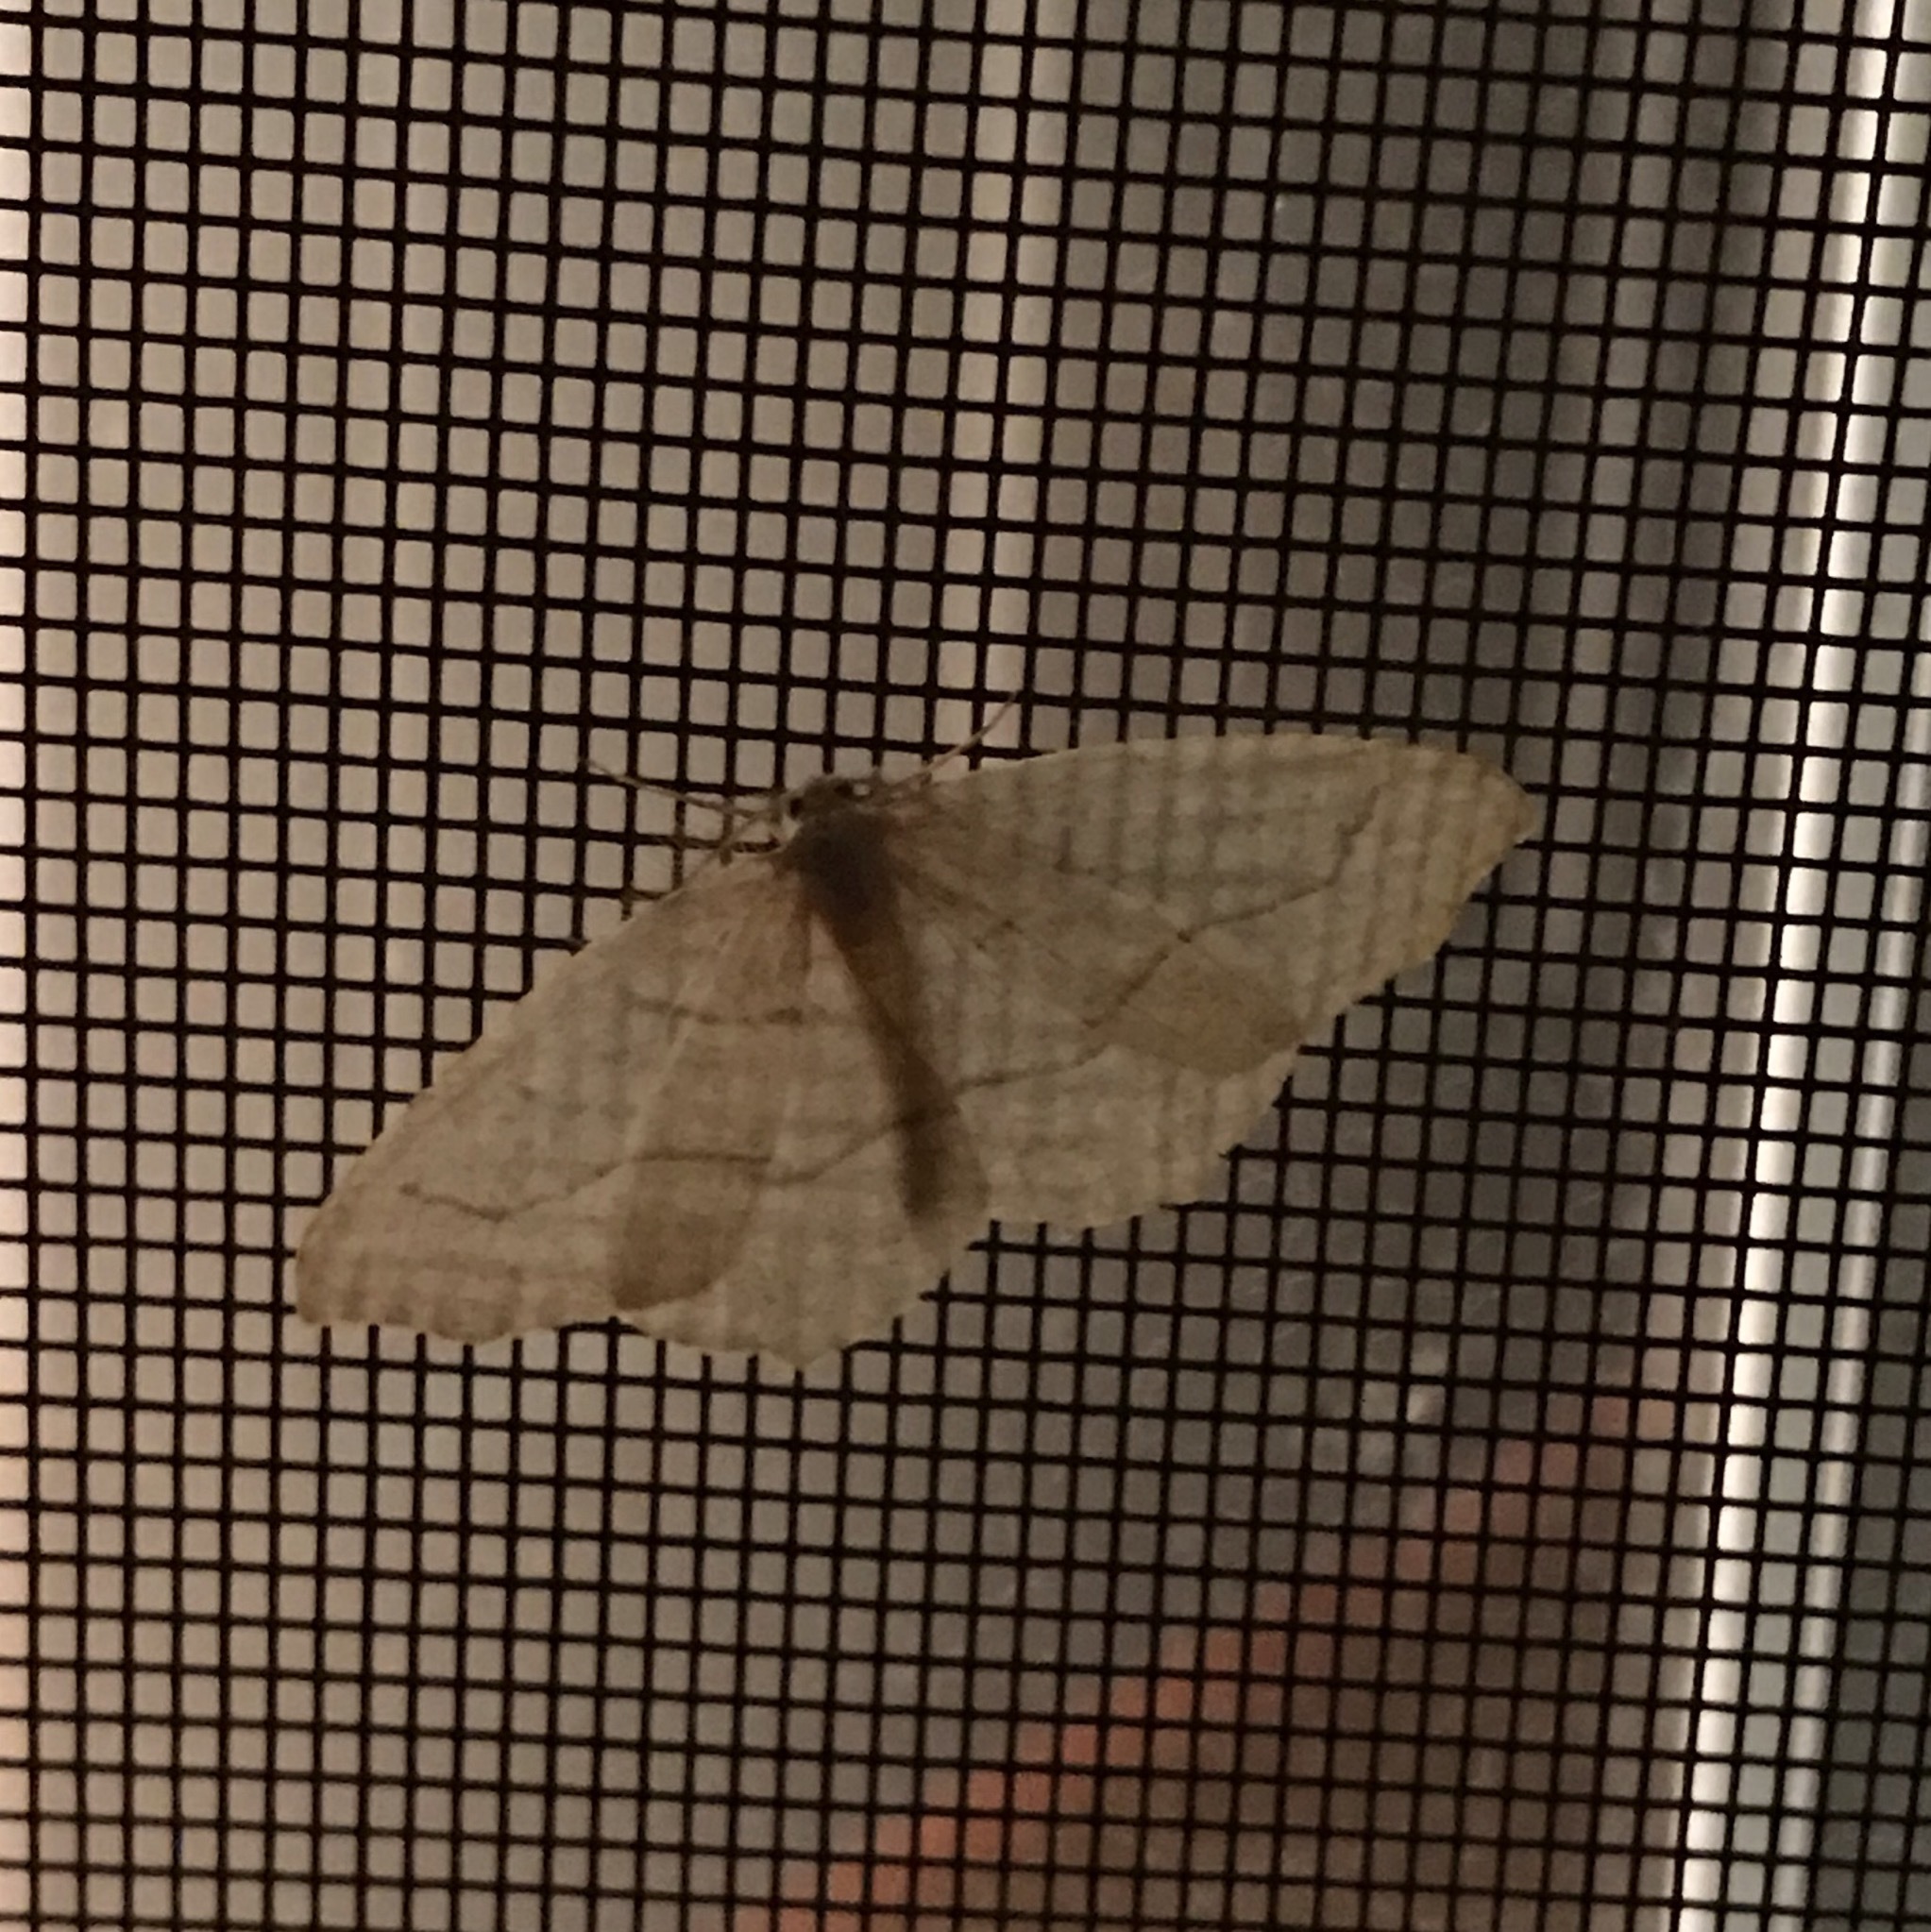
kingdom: Animalia
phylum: Arthropoda
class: Insecta
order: Lepidoptera
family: Geometridae
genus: Lambdina
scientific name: Lambdina fiscellaria
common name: Hemlock looper
